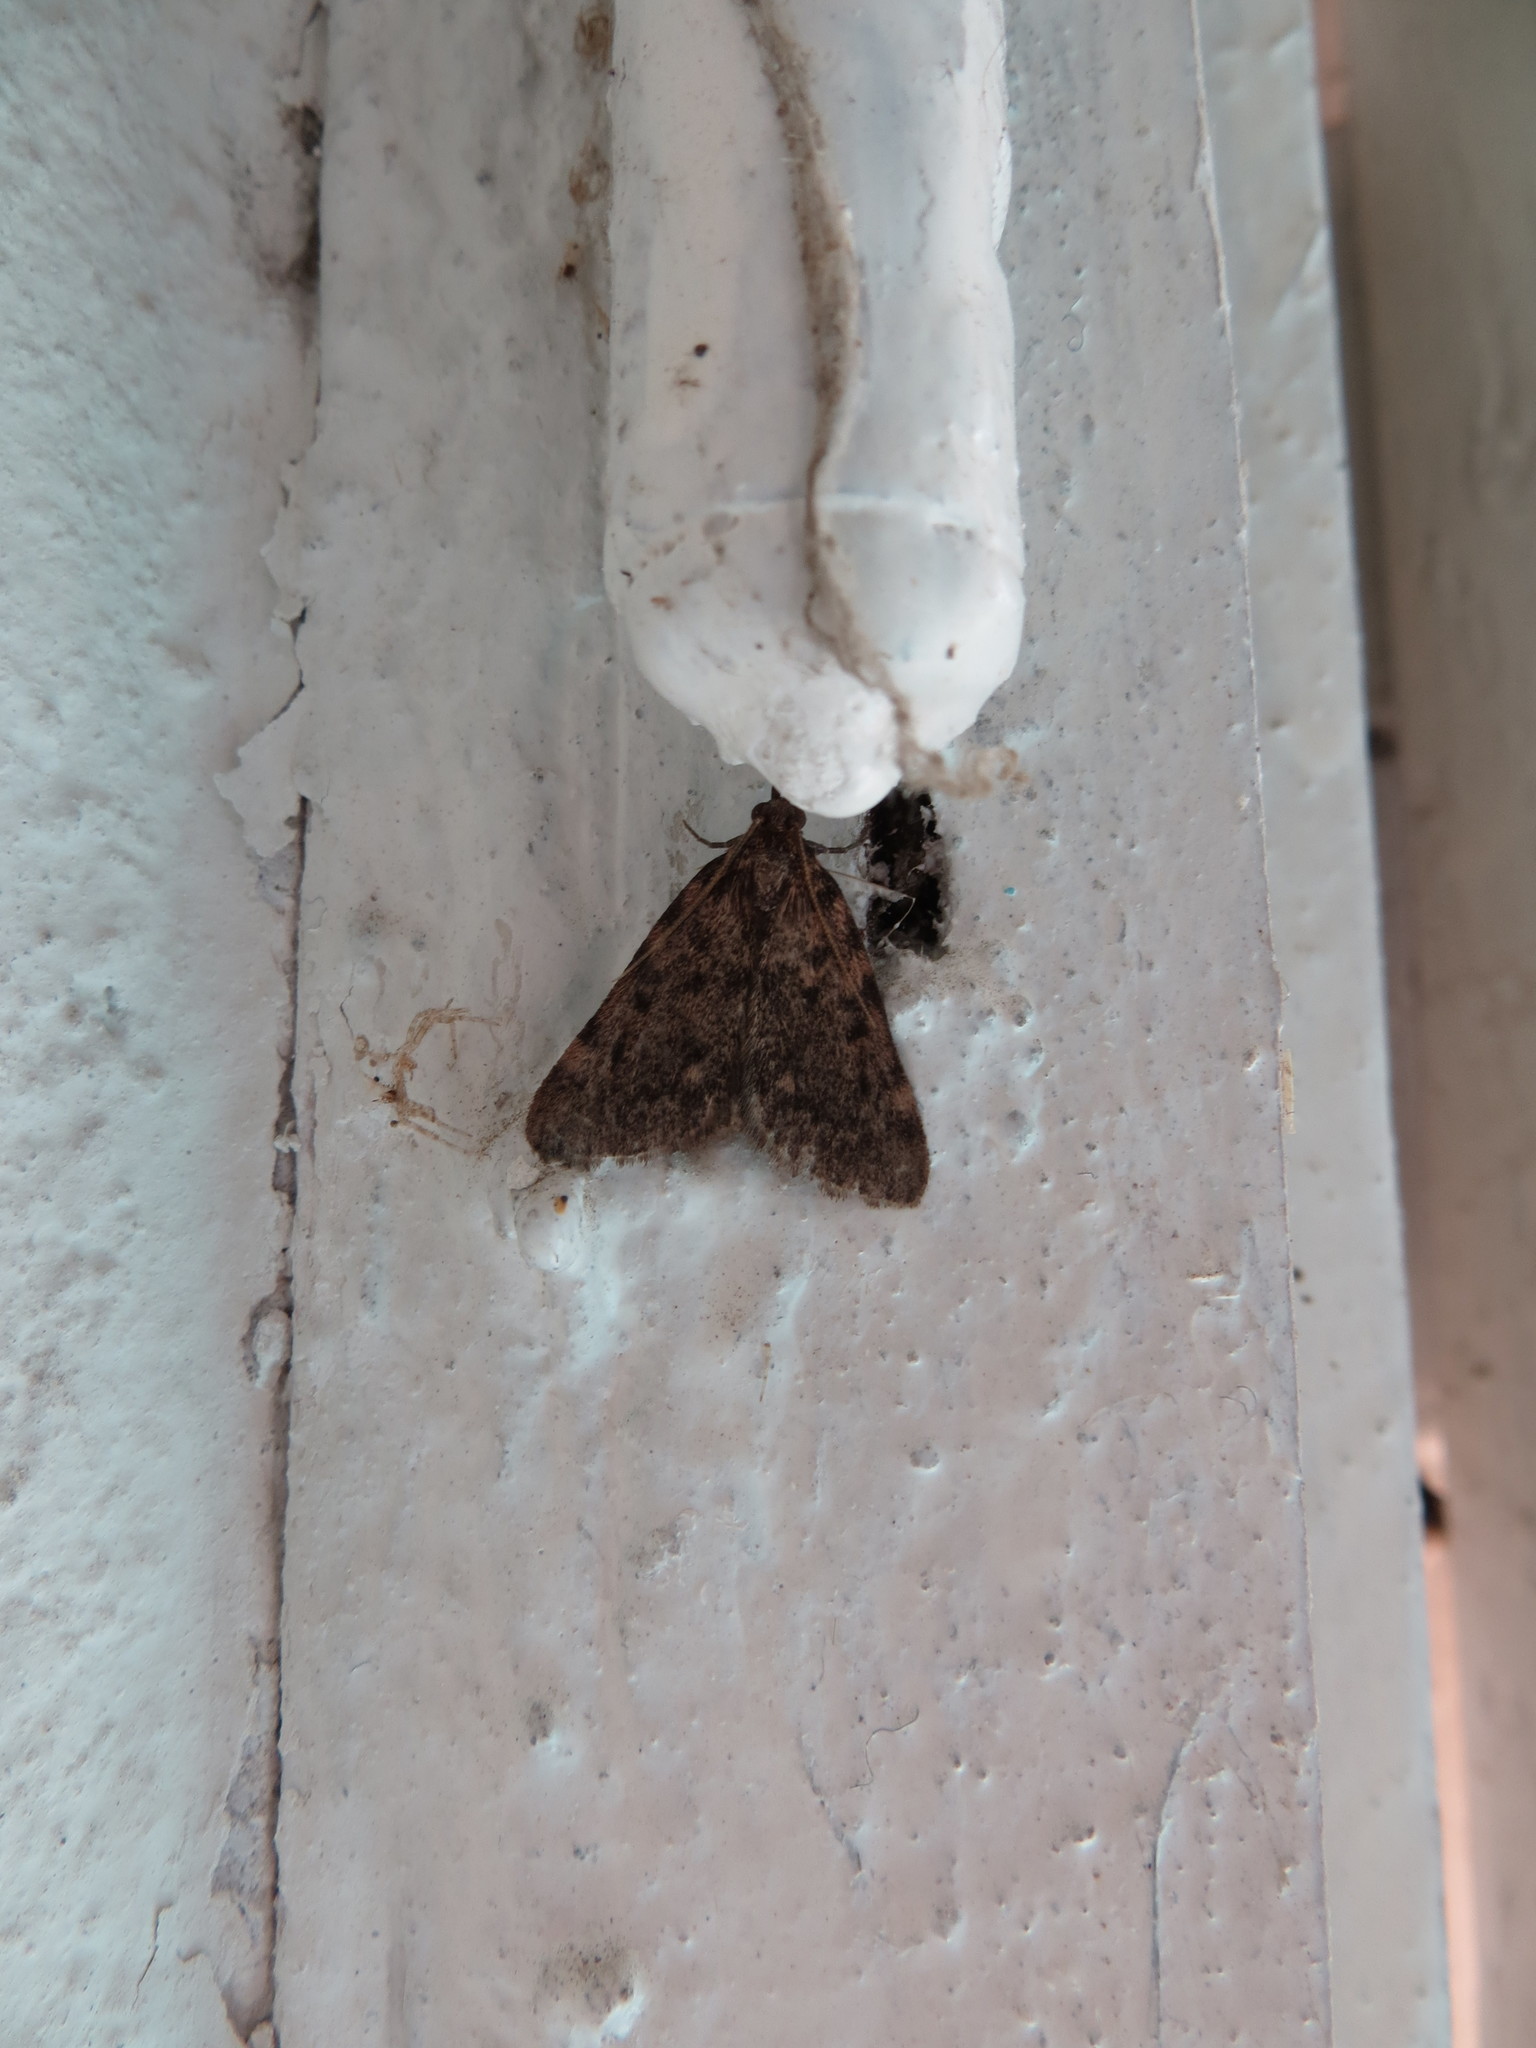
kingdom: Animalia
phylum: Arthropoda
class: Insecta
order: Lepidoptera
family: Pyralidae
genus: Aglossa
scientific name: Aglossa pinguinalis
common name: Large tabby
